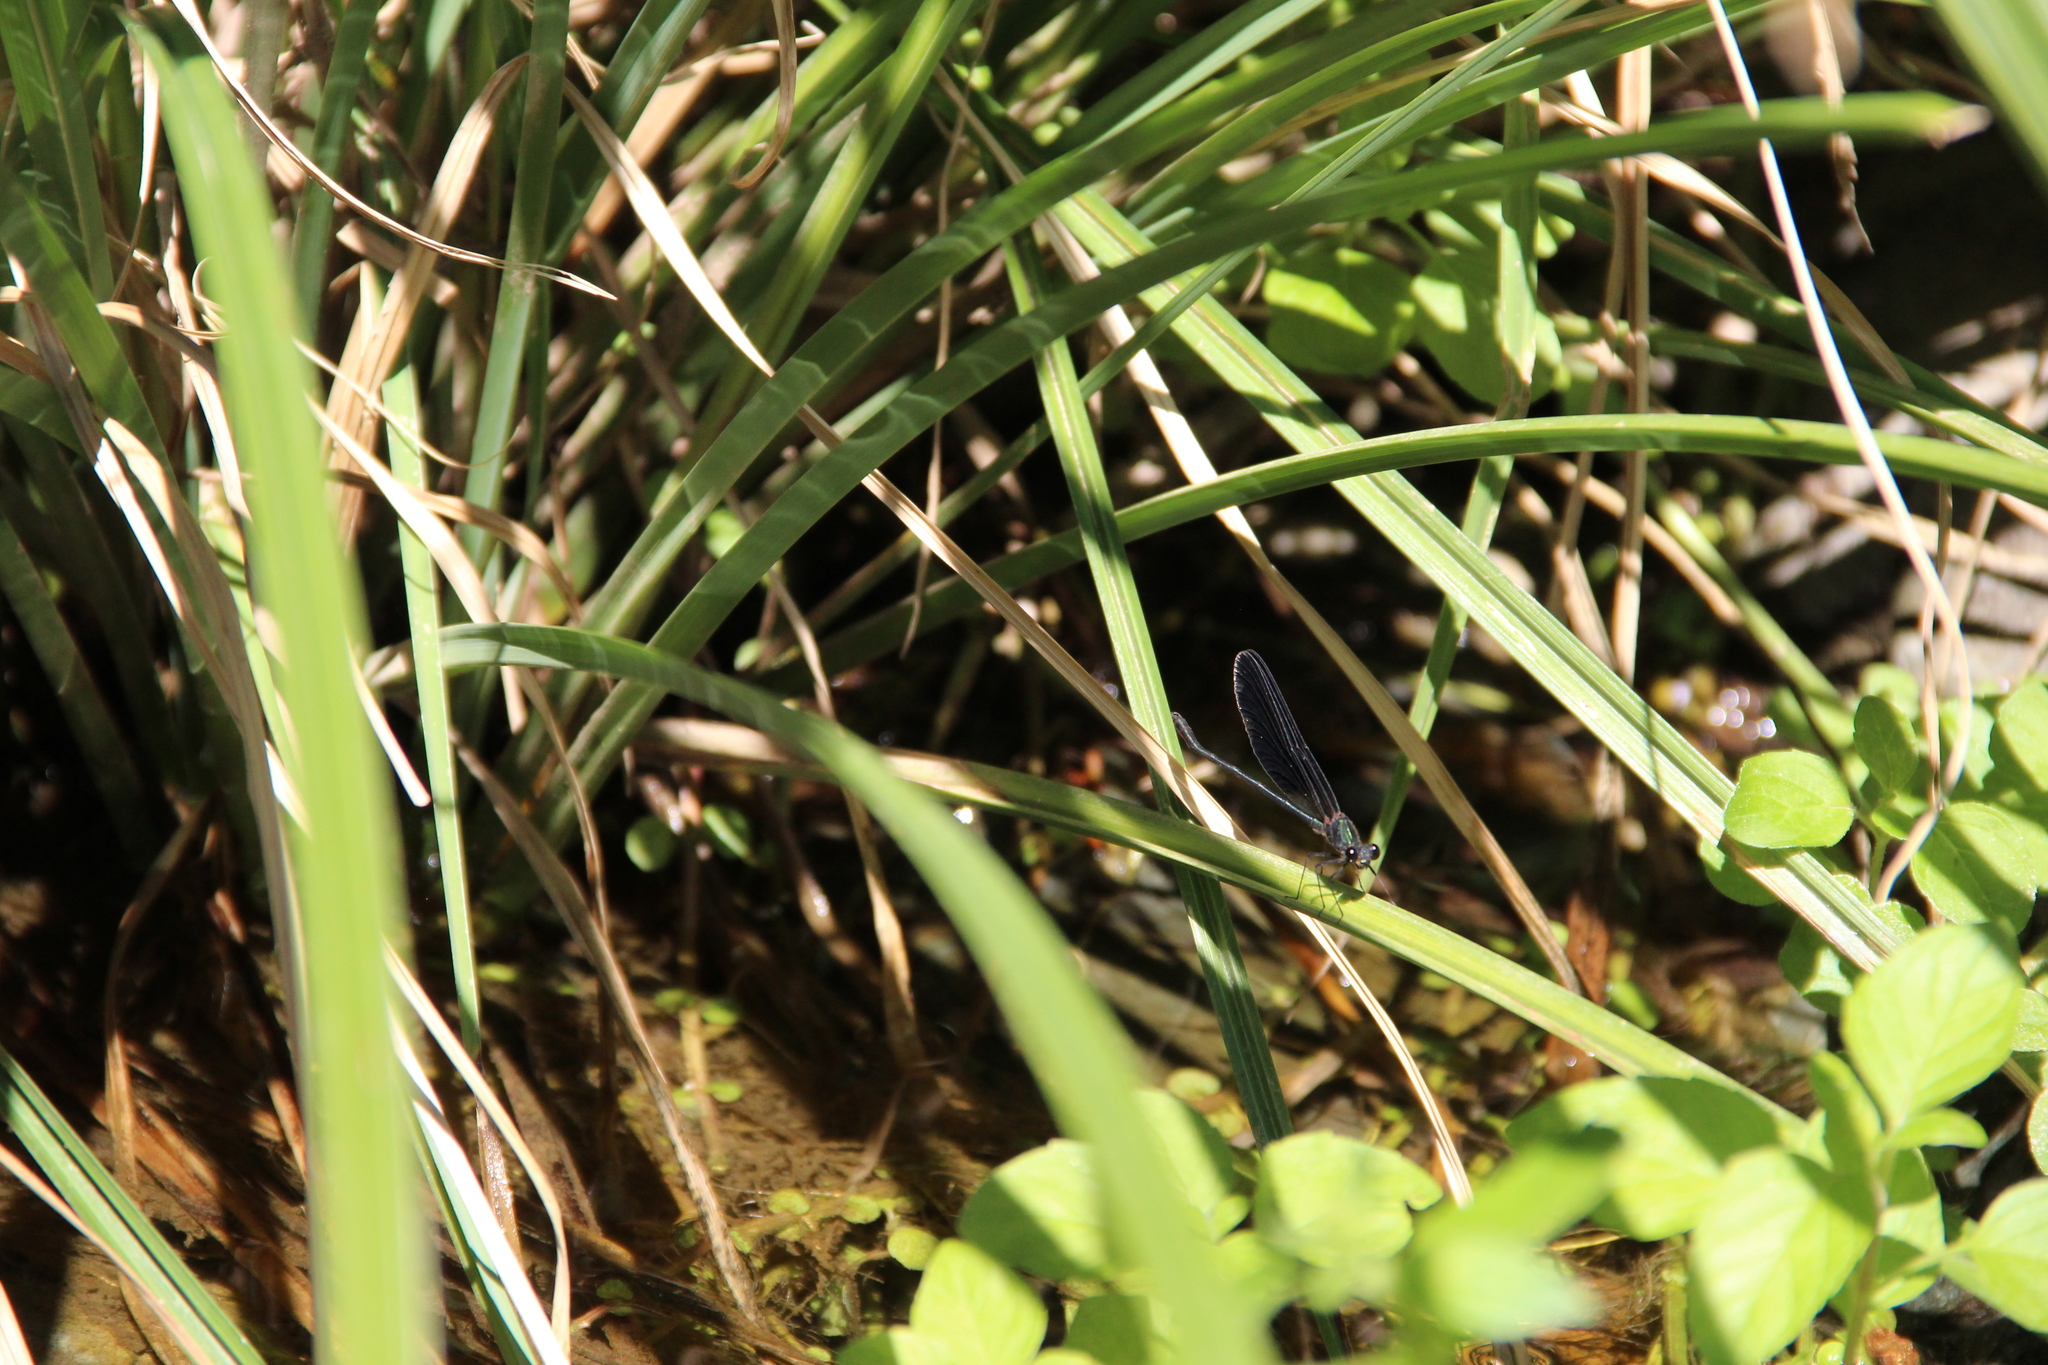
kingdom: Animalia
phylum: Arthropoda
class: Insecta
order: Odonata
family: Calopterygidae
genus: Calopteryx
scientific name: Calopteryx haemorrhoidalis
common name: Copper demoiselle
